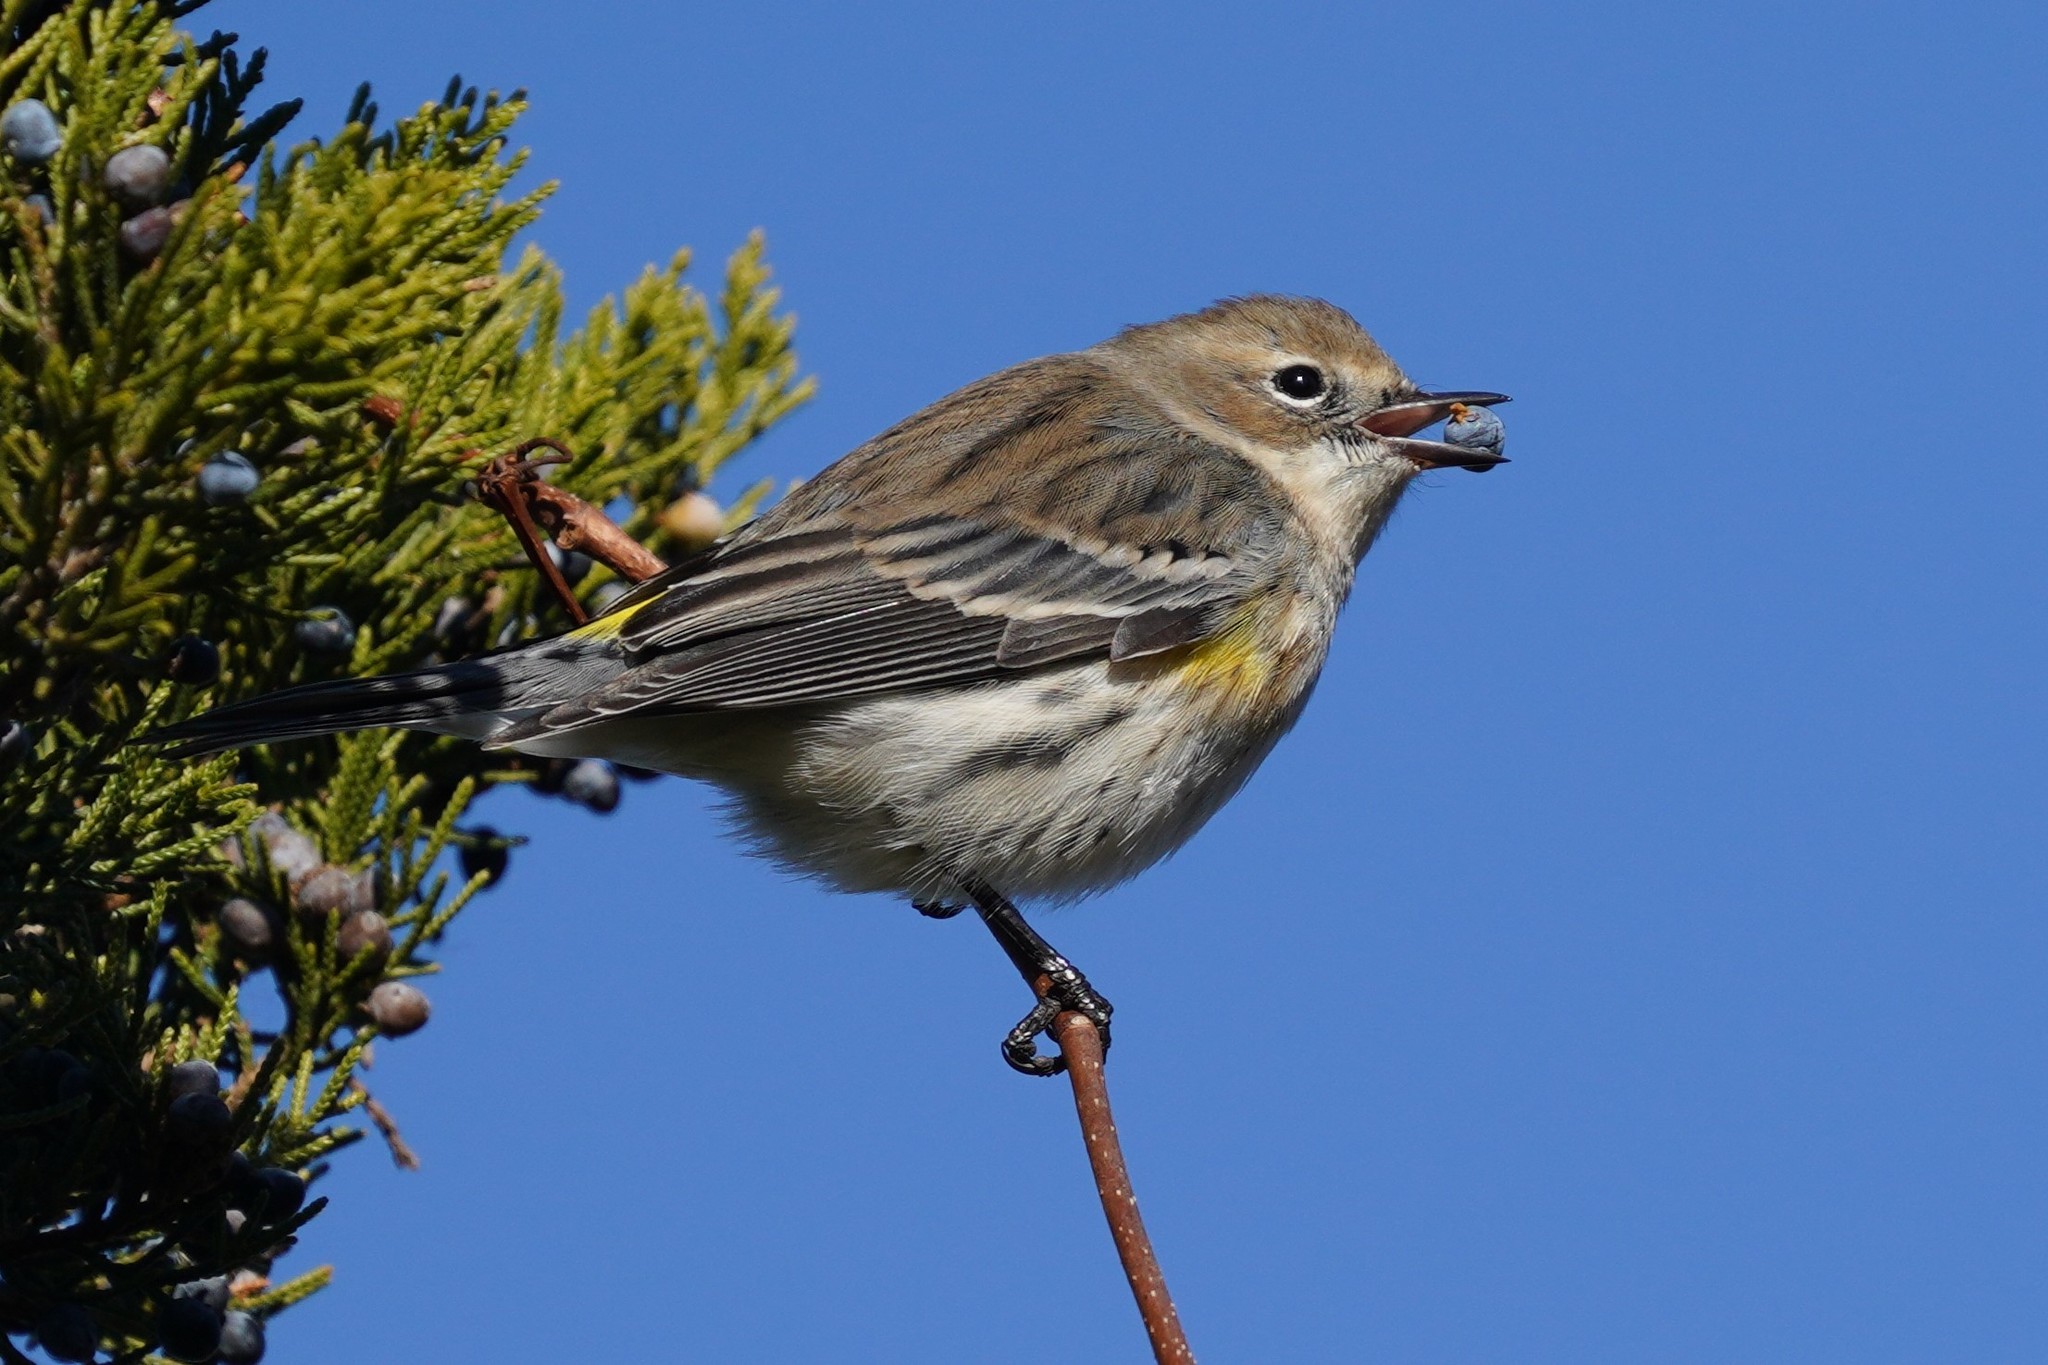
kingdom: Animalia
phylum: Chordata
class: Aves
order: Passeriformes
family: Parulidae
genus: Setophaga
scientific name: Setophaga coronata
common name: Myrtle warbler
